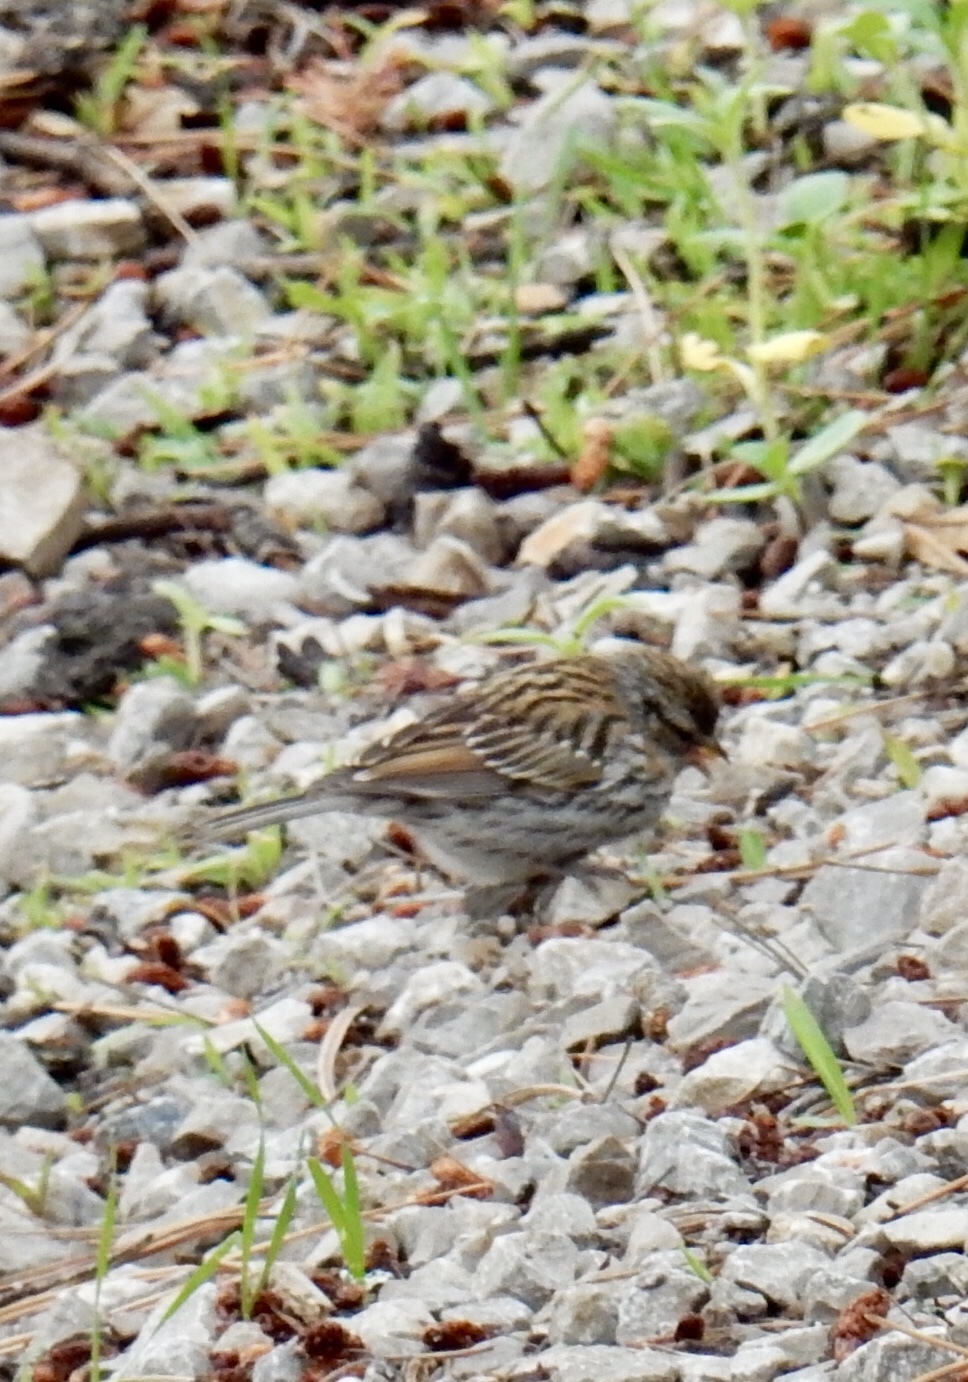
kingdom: Animalia
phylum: Chordata
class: Aves
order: Passeriformes
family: Passerellidae
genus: Spizella
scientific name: Spizella passerina
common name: Chipping sparrow
